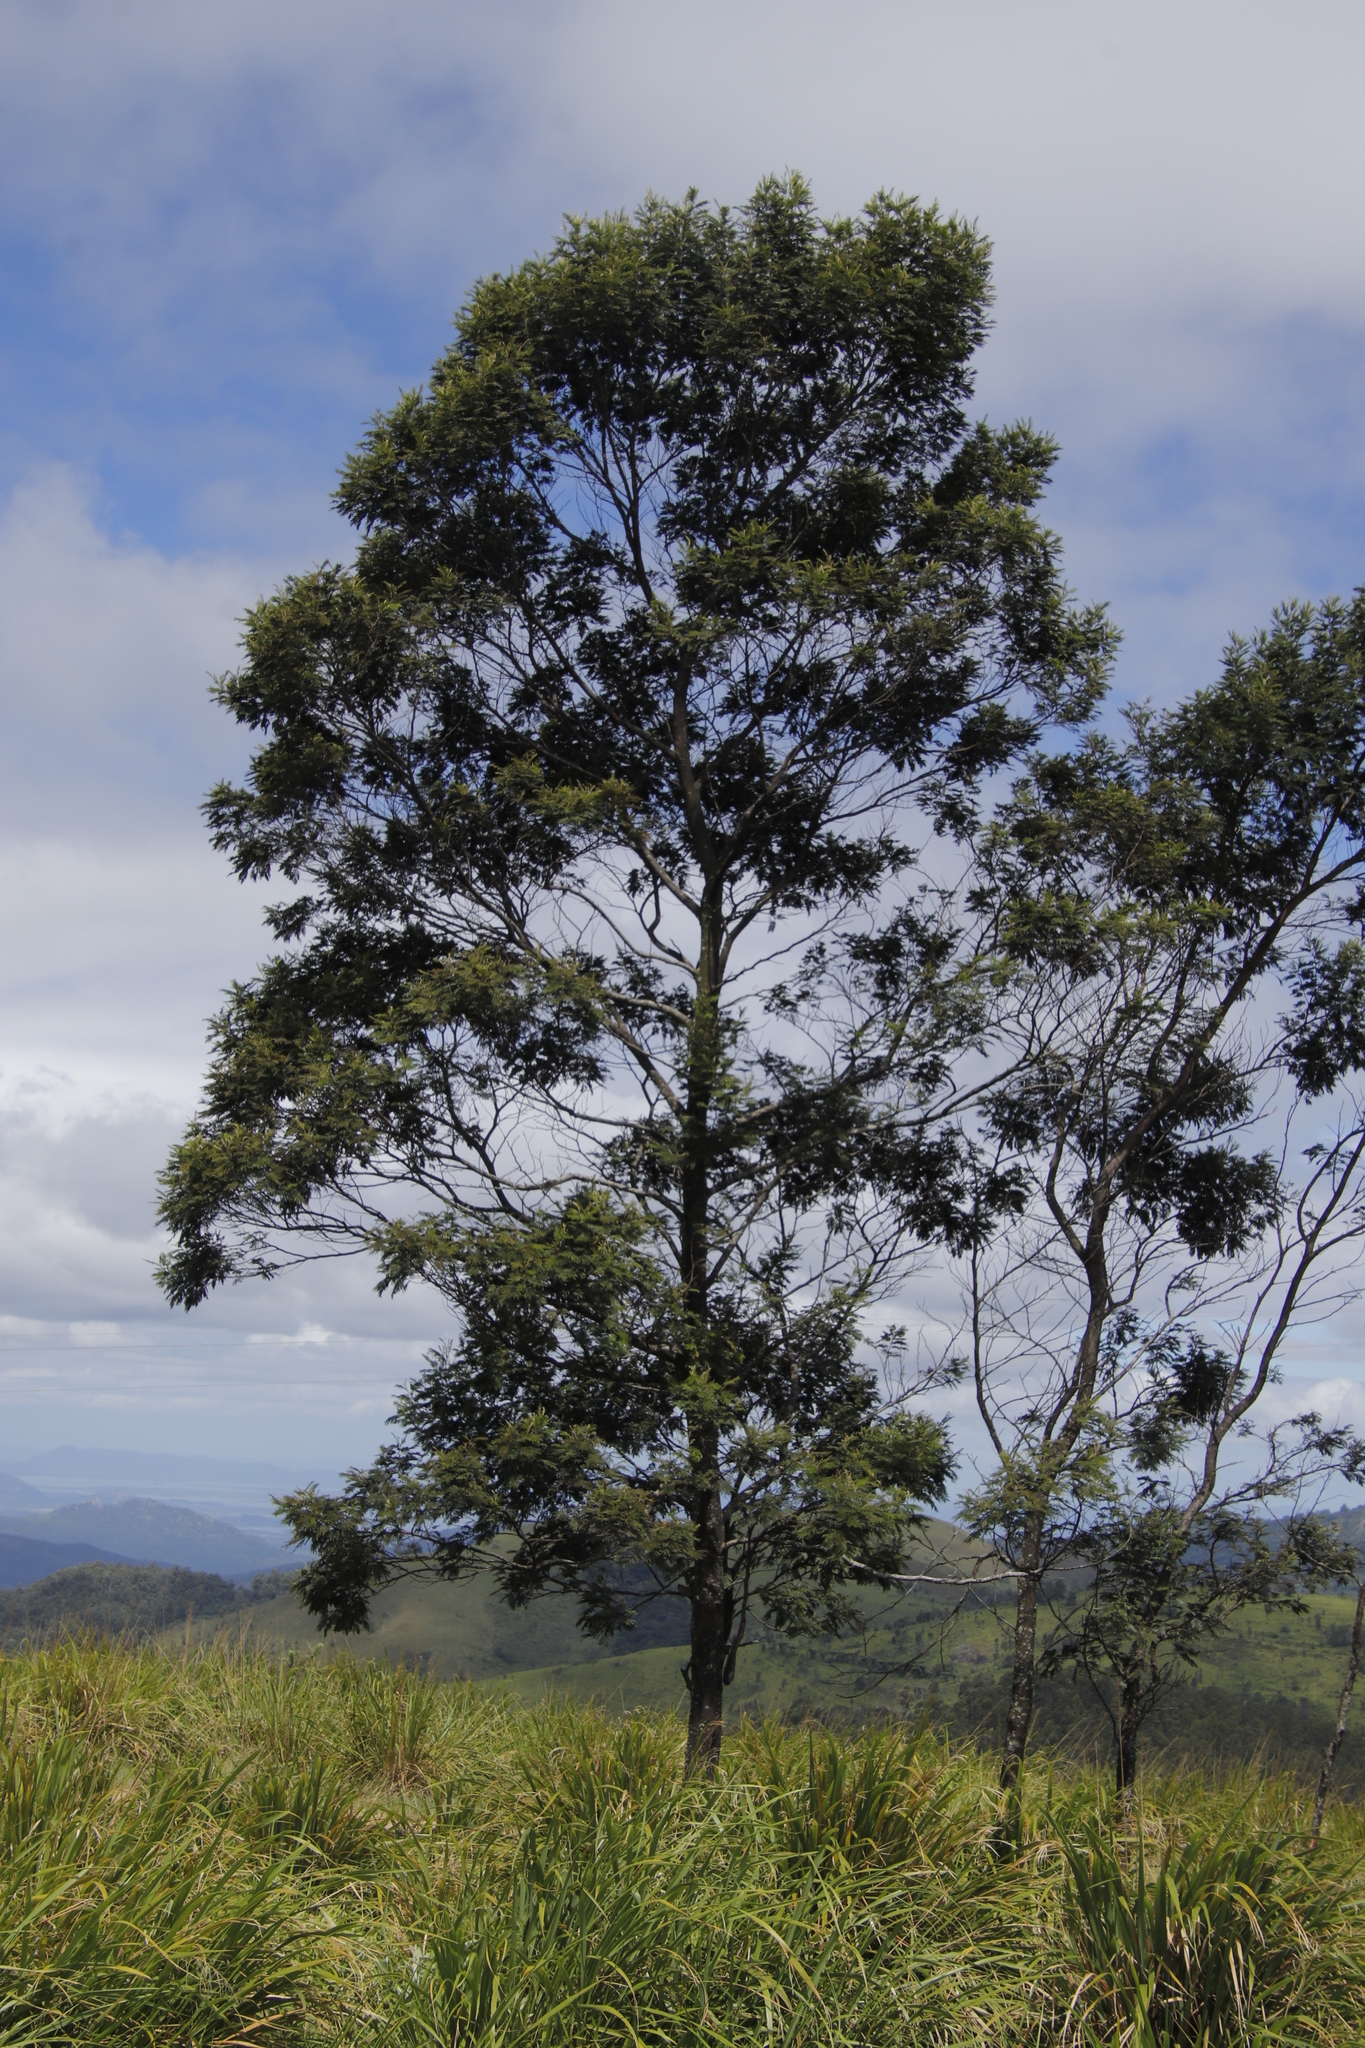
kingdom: Plantae
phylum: Tracheophyta
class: Magnoliopsida
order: Fabales
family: Fabaceae
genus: Acacia
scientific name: Acacia mearnsii
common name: Black wattle
